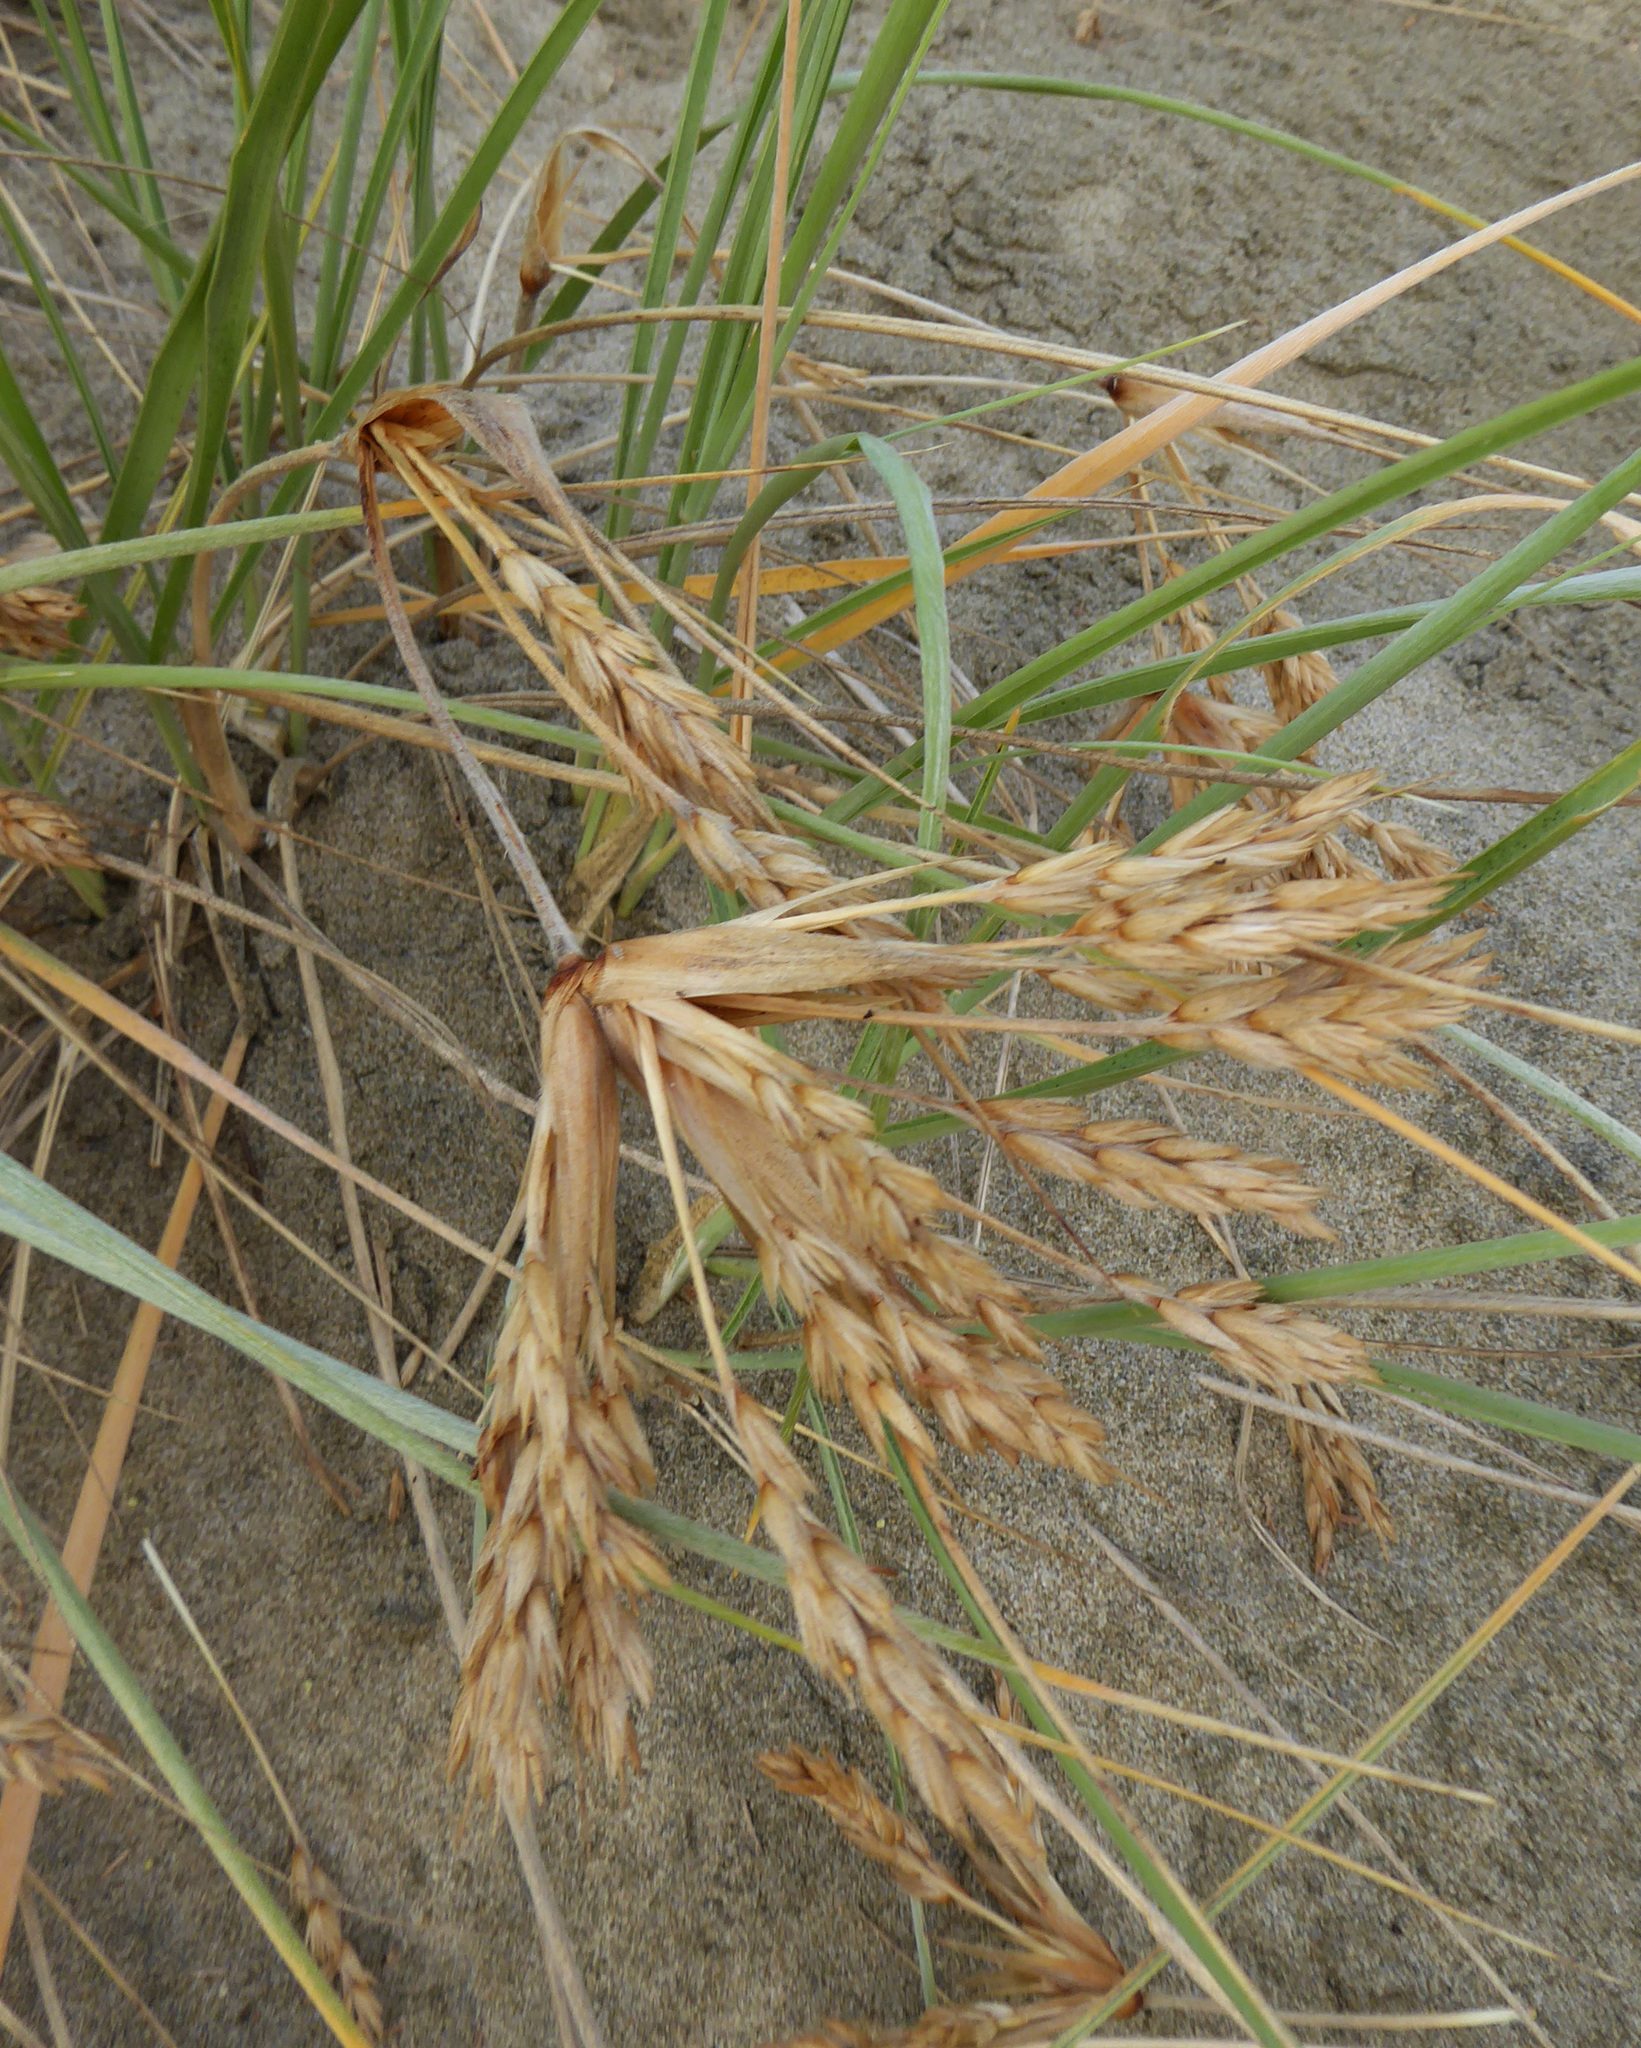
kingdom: Plantae
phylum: Tracheophyta
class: Liliopsida
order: Poales
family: Poaceae
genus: Spinifex
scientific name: Spinifex sericeus
